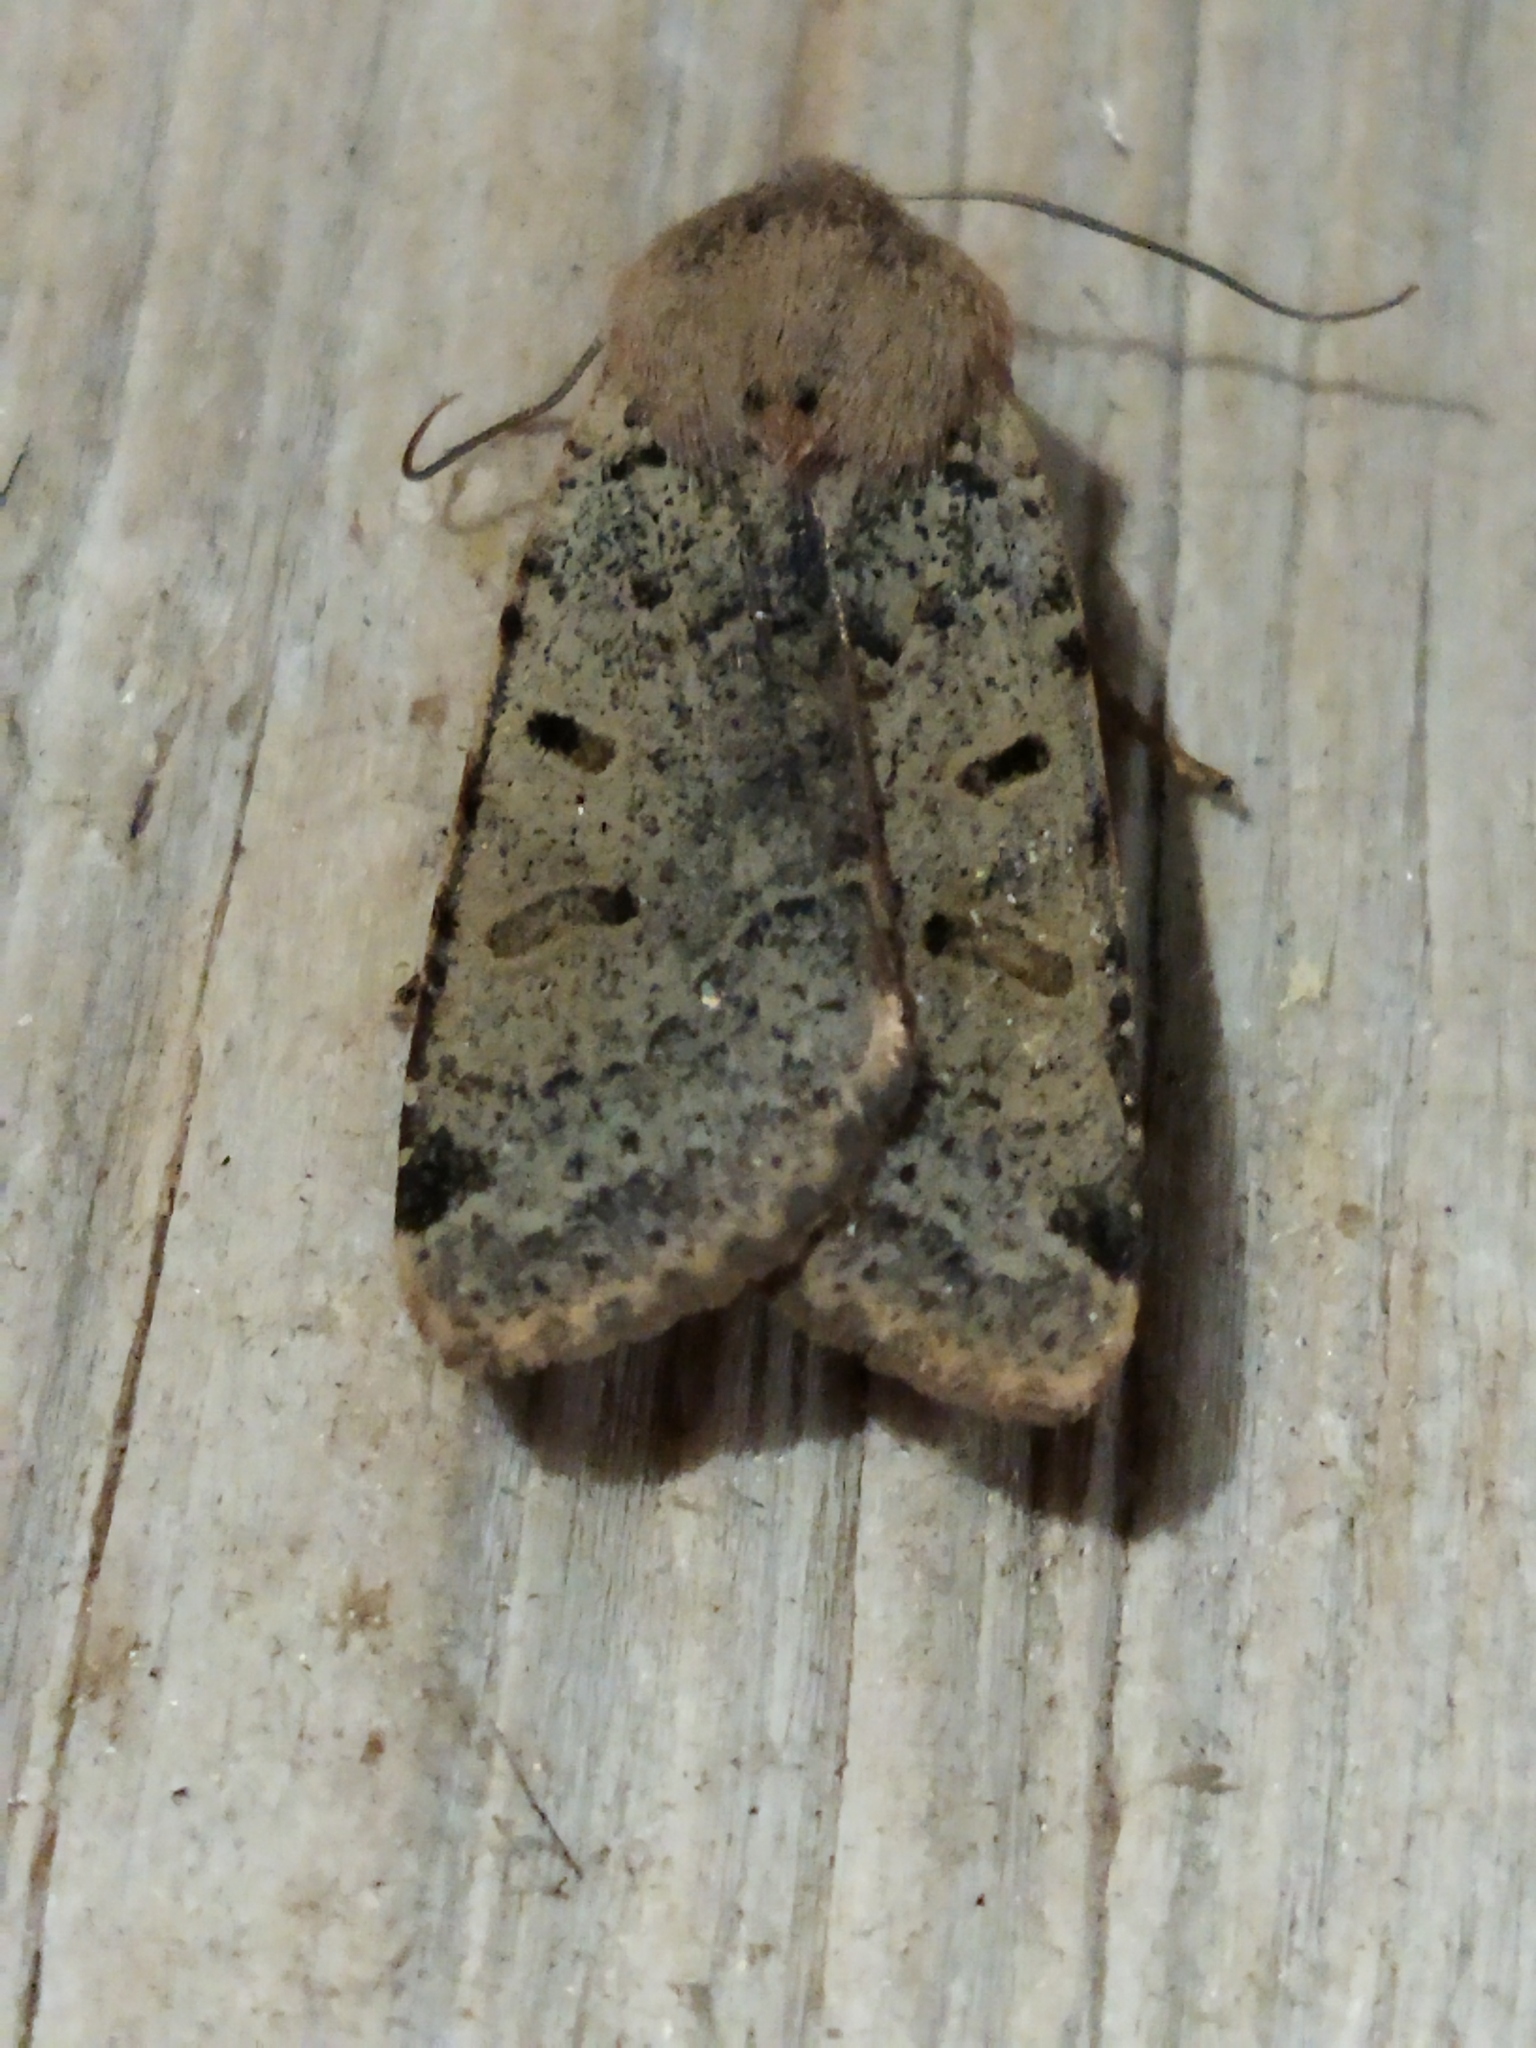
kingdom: Animalia
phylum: Arthropoda
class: Insecta
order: Lepidoptera
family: Noctuidae
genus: Agrochola
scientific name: Agrochola lychnidis
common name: Beaded chestnut
